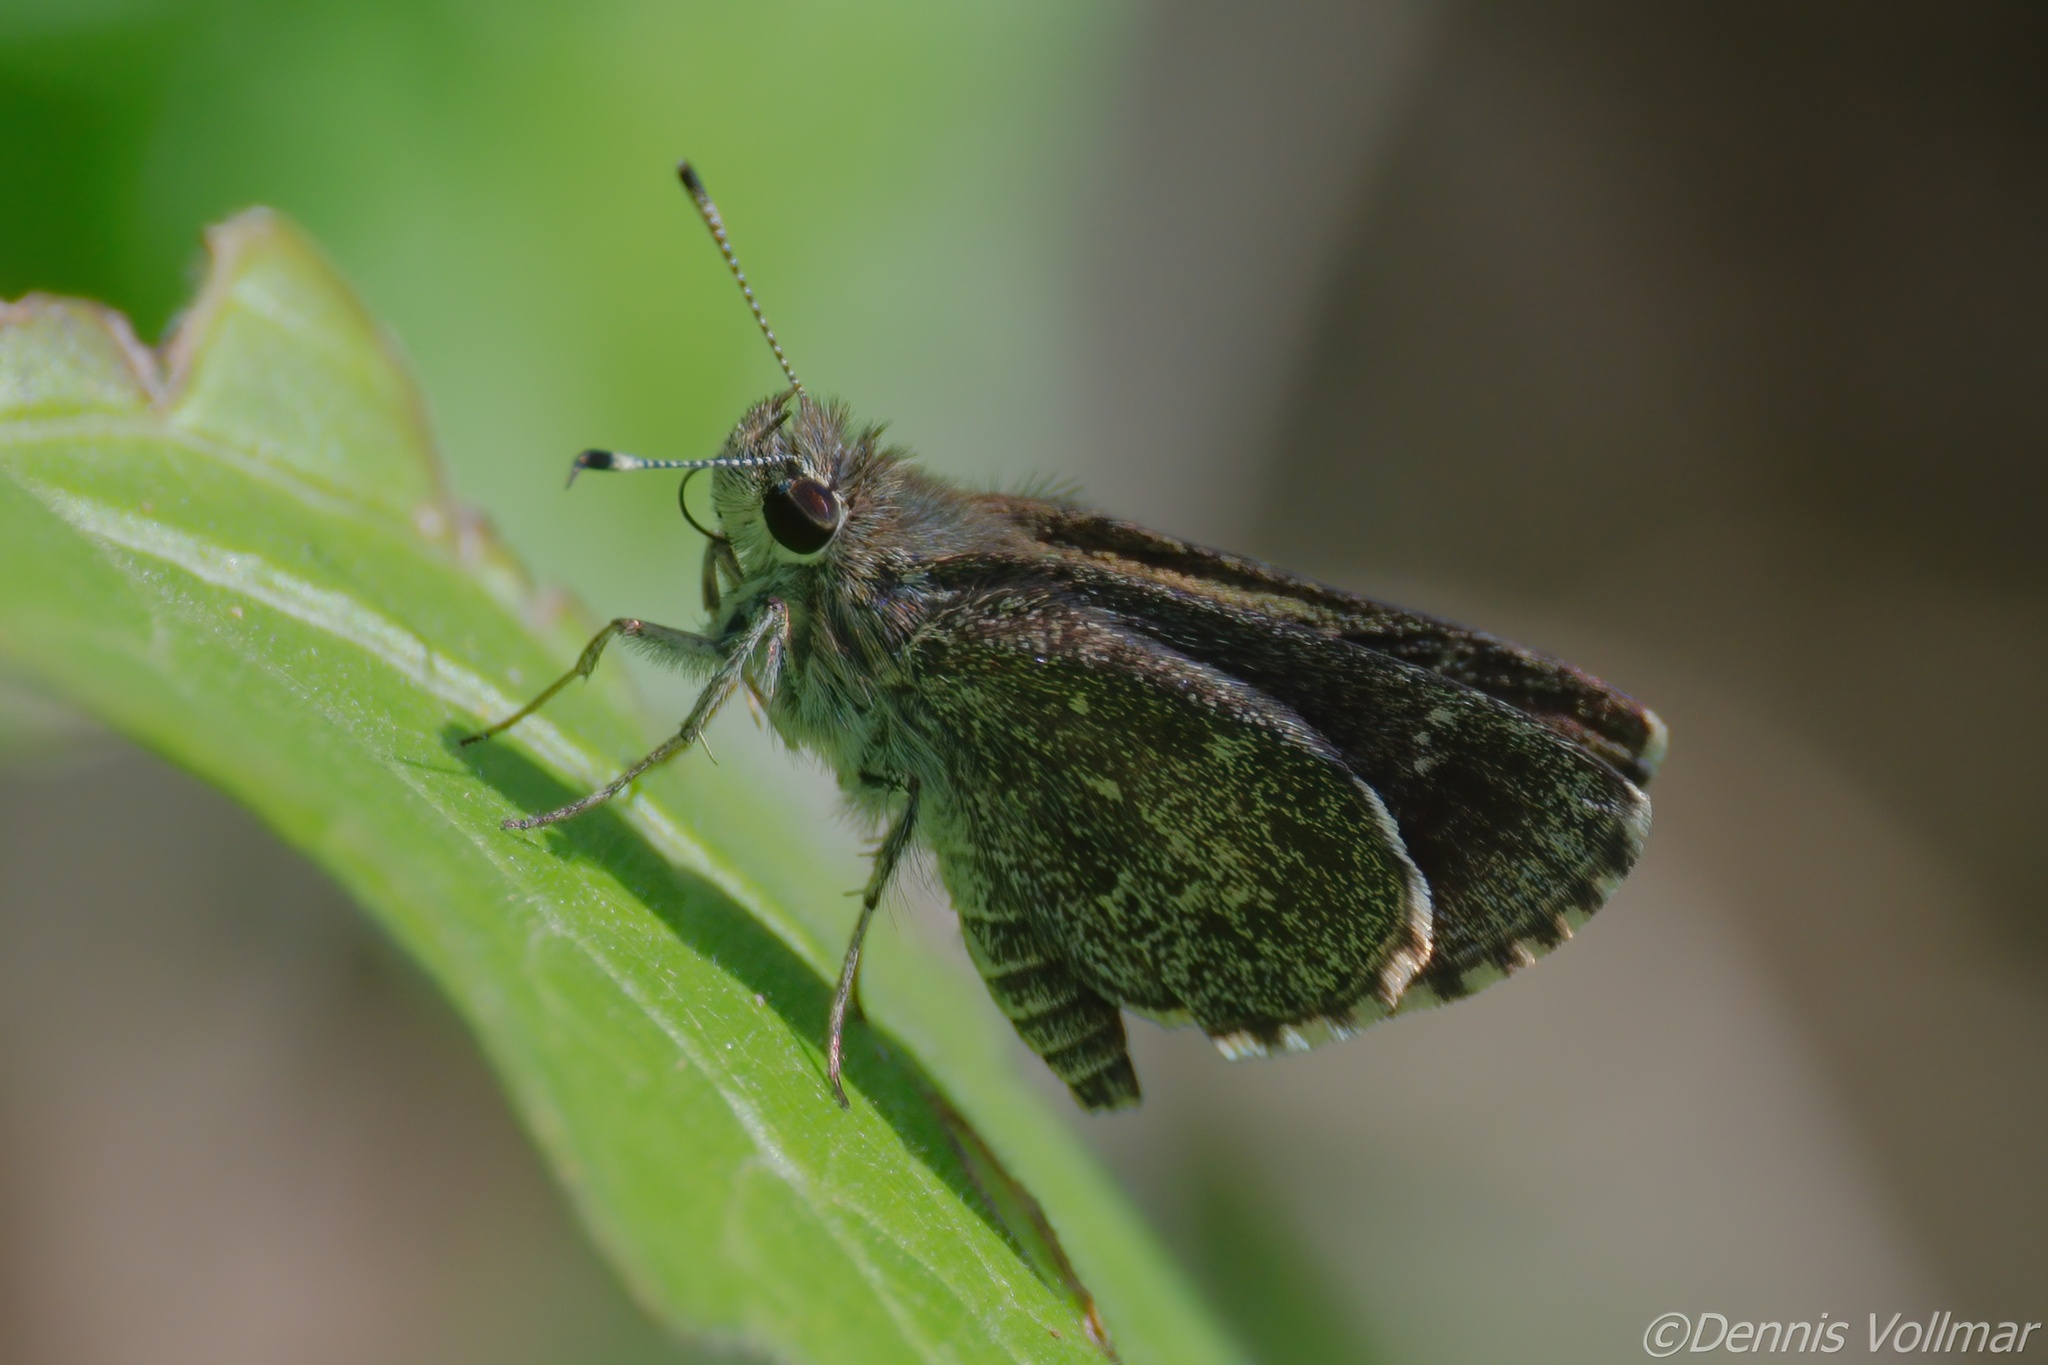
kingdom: Animalia
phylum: Arthropoda
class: Insecta
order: Lepidoptera
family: Hesperiidae
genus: Mastor
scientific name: Mastor celia
